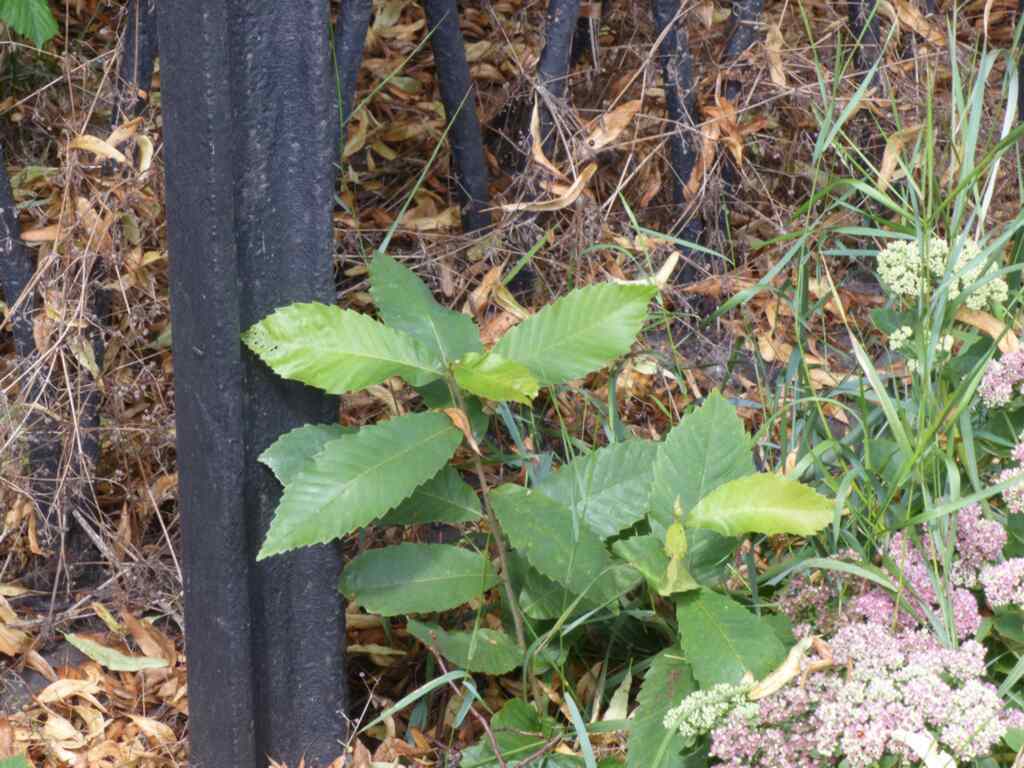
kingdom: Plantae
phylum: Tracheophyta
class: Magnoliopsida
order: Fagales
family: Fagaceae
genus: Castanea
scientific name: Castanea sativa
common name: Sweet chestnut
